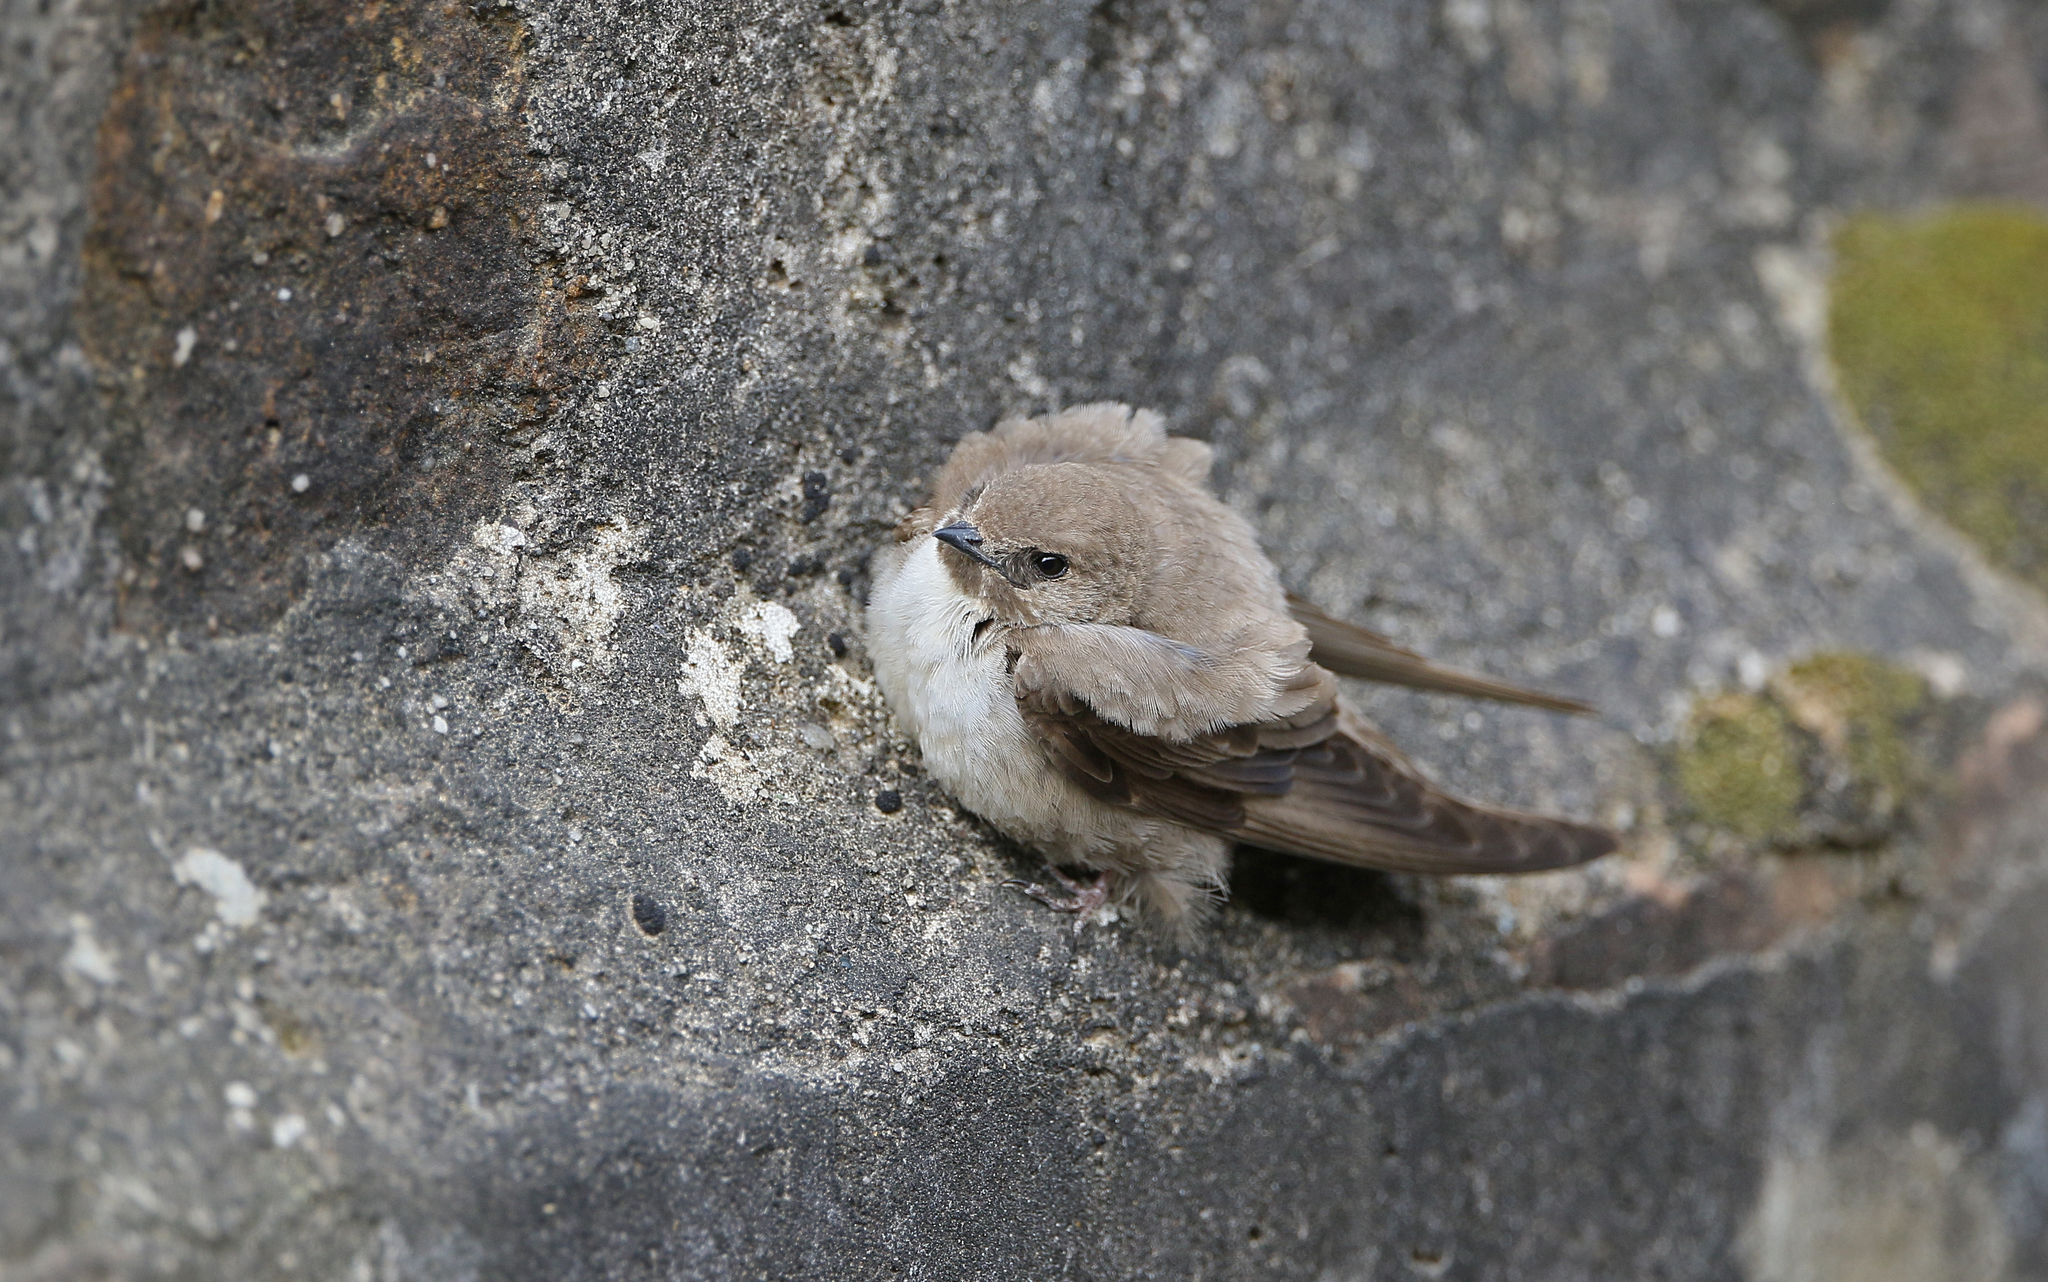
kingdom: Animalia
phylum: Chordata
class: Aves
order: Passeriformes
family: Hirundinidae
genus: Ptyonoprogne
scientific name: Ptyonoprogne rupestris
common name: Eurasian crag martin
